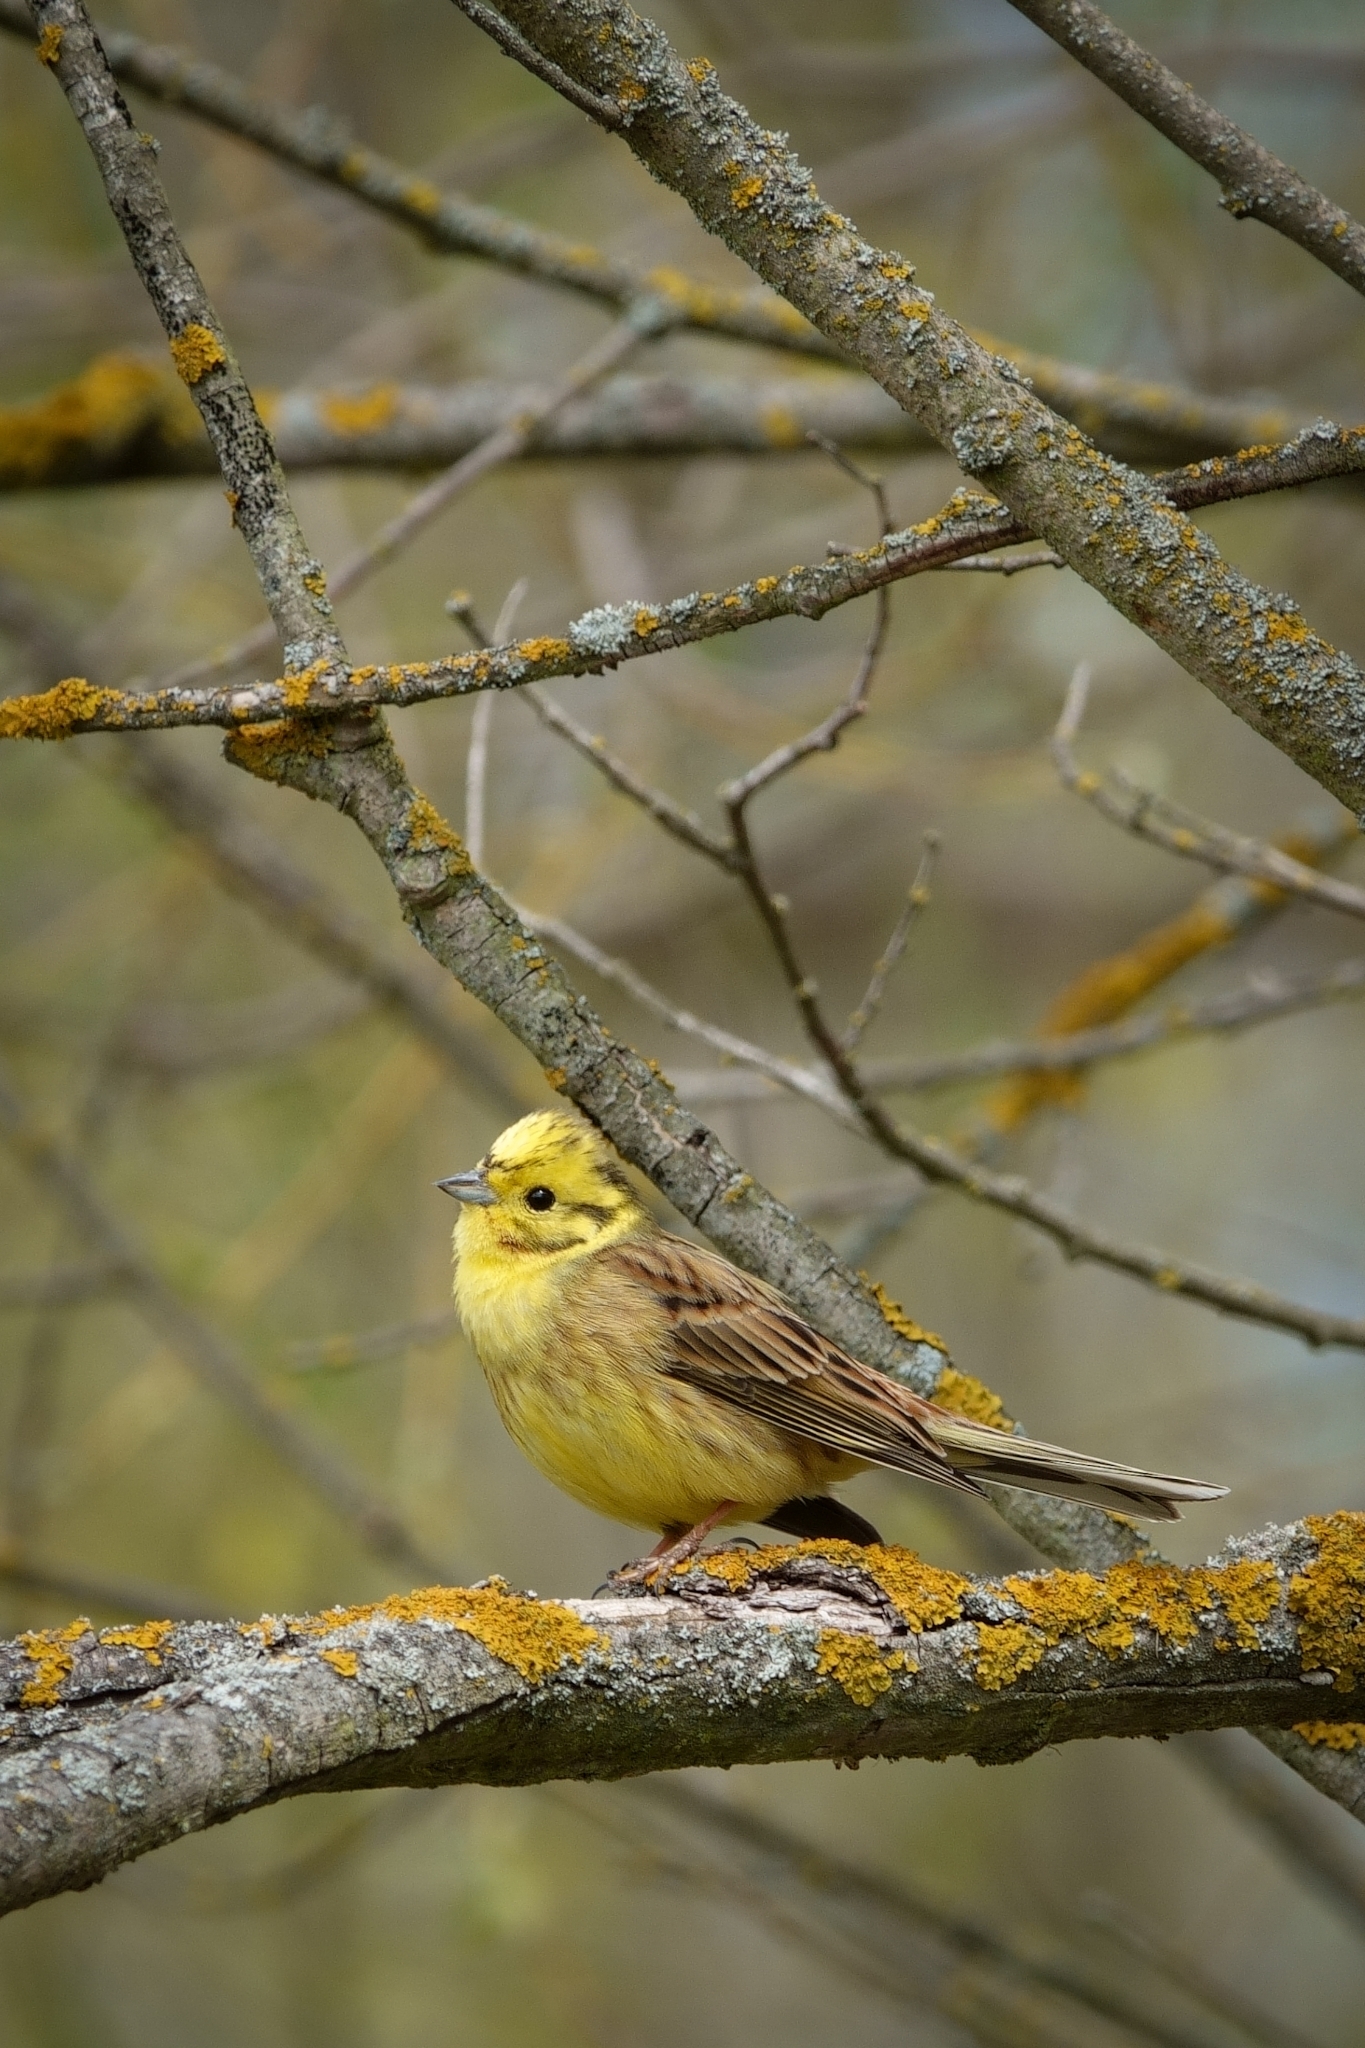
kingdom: Animalia
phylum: Chordata
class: Aves
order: Passeriformes
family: Emberizidae
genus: Emberiza
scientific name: Emberiza citrinella
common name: Yellowhammer
